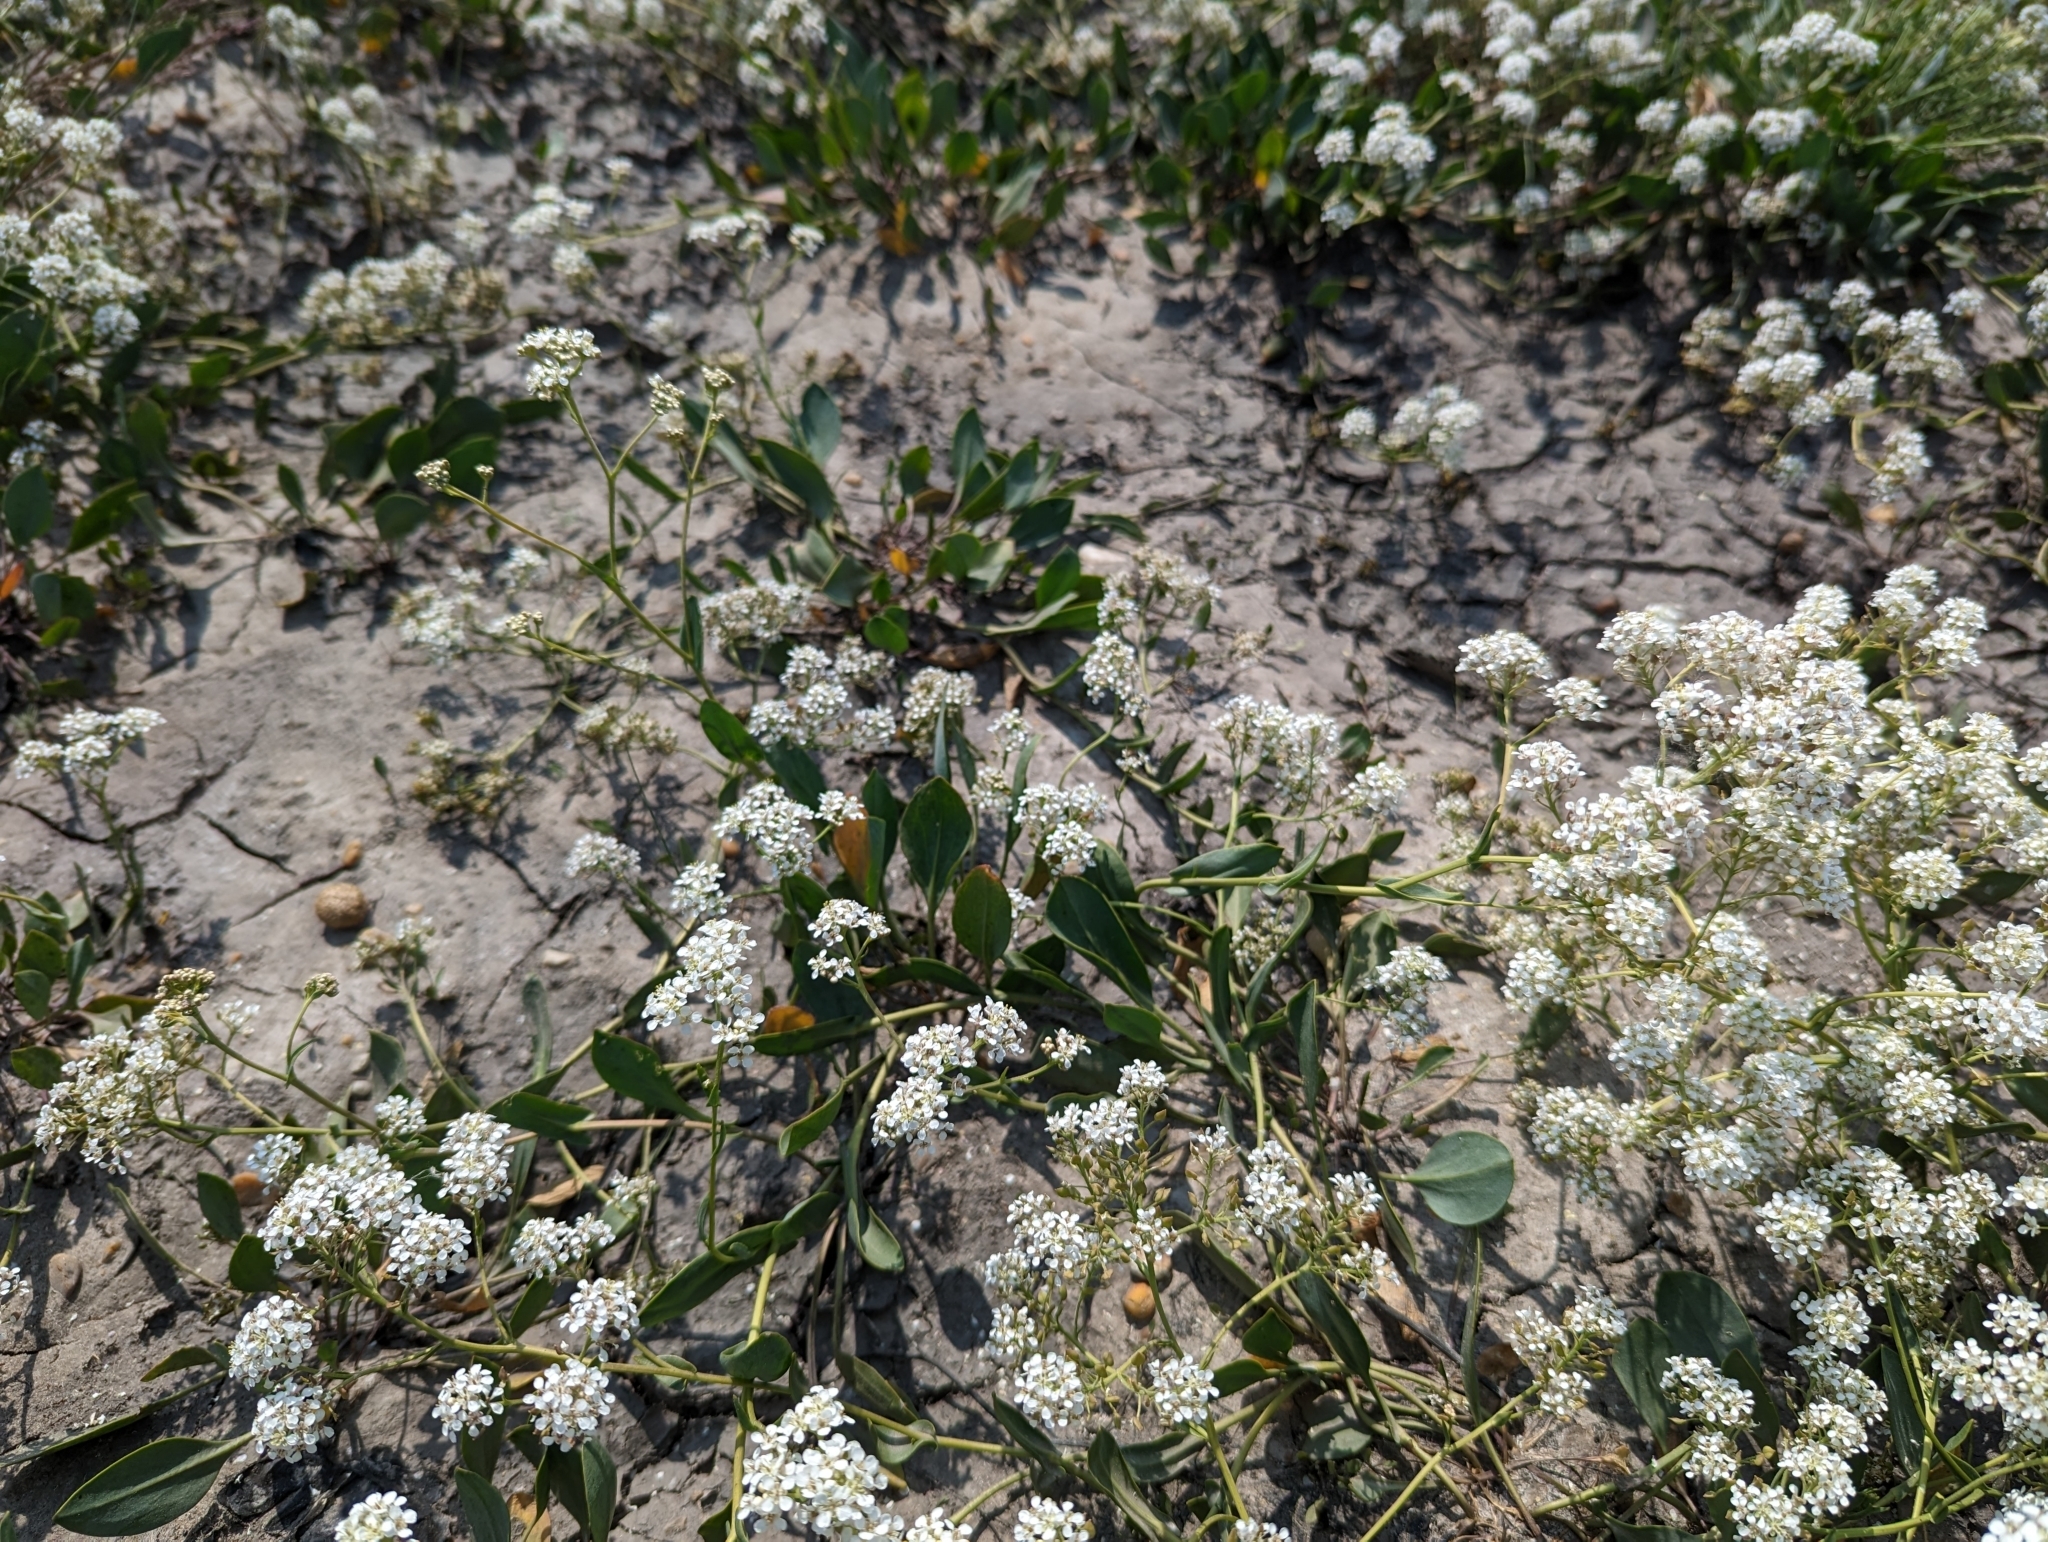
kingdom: Plantae
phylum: Tracheophyta
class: Magnoliopsida
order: Brassicales
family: Brassicaceae
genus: Lepidium
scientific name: Lepidium cartilagineum
